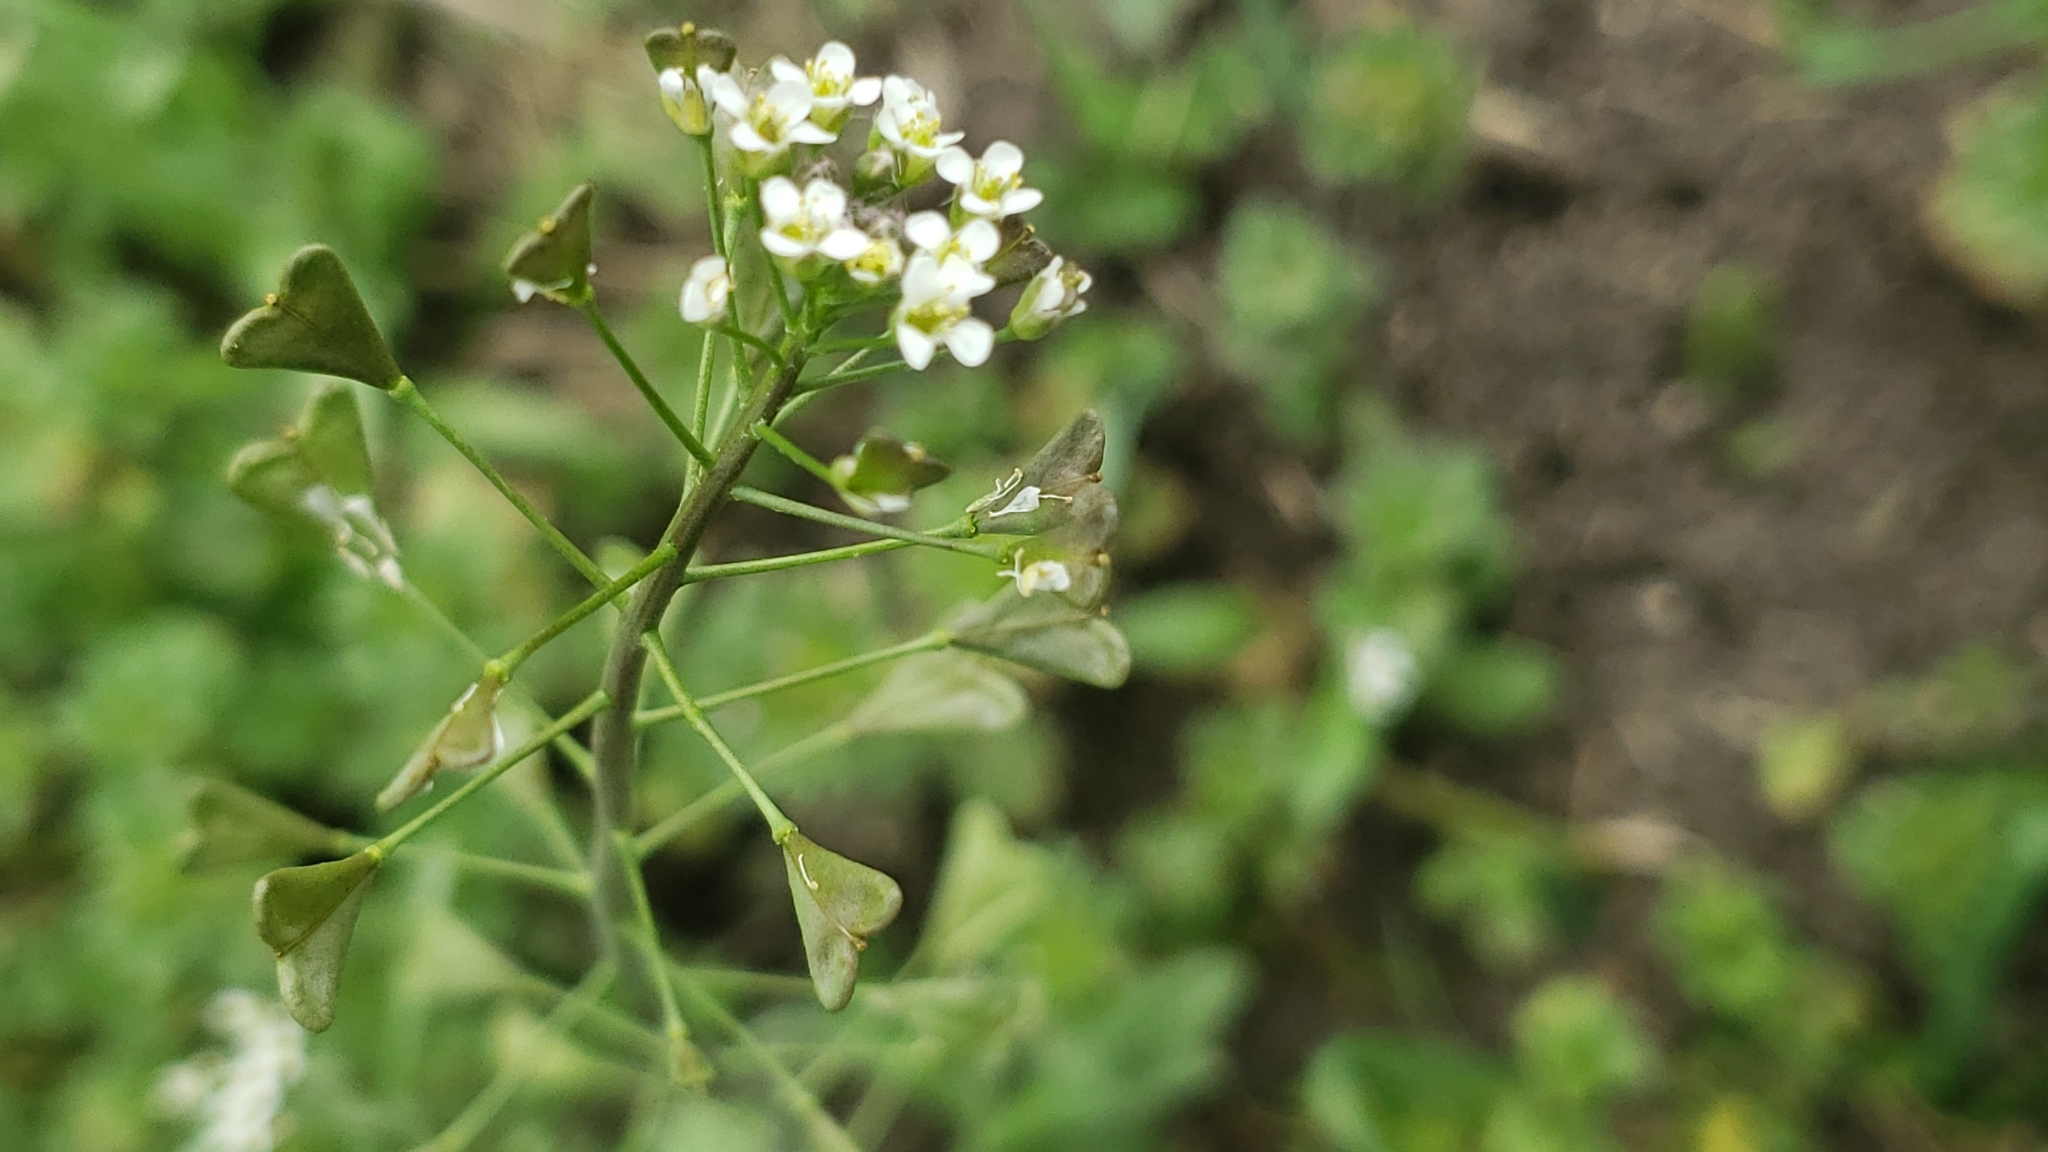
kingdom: Plantae
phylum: Tracheophyta
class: Magnoliopsida
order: Brassicales
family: Brassicaceae
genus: Capsella
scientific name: Capsella bursa-pastoris
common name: Shepherd's purse
